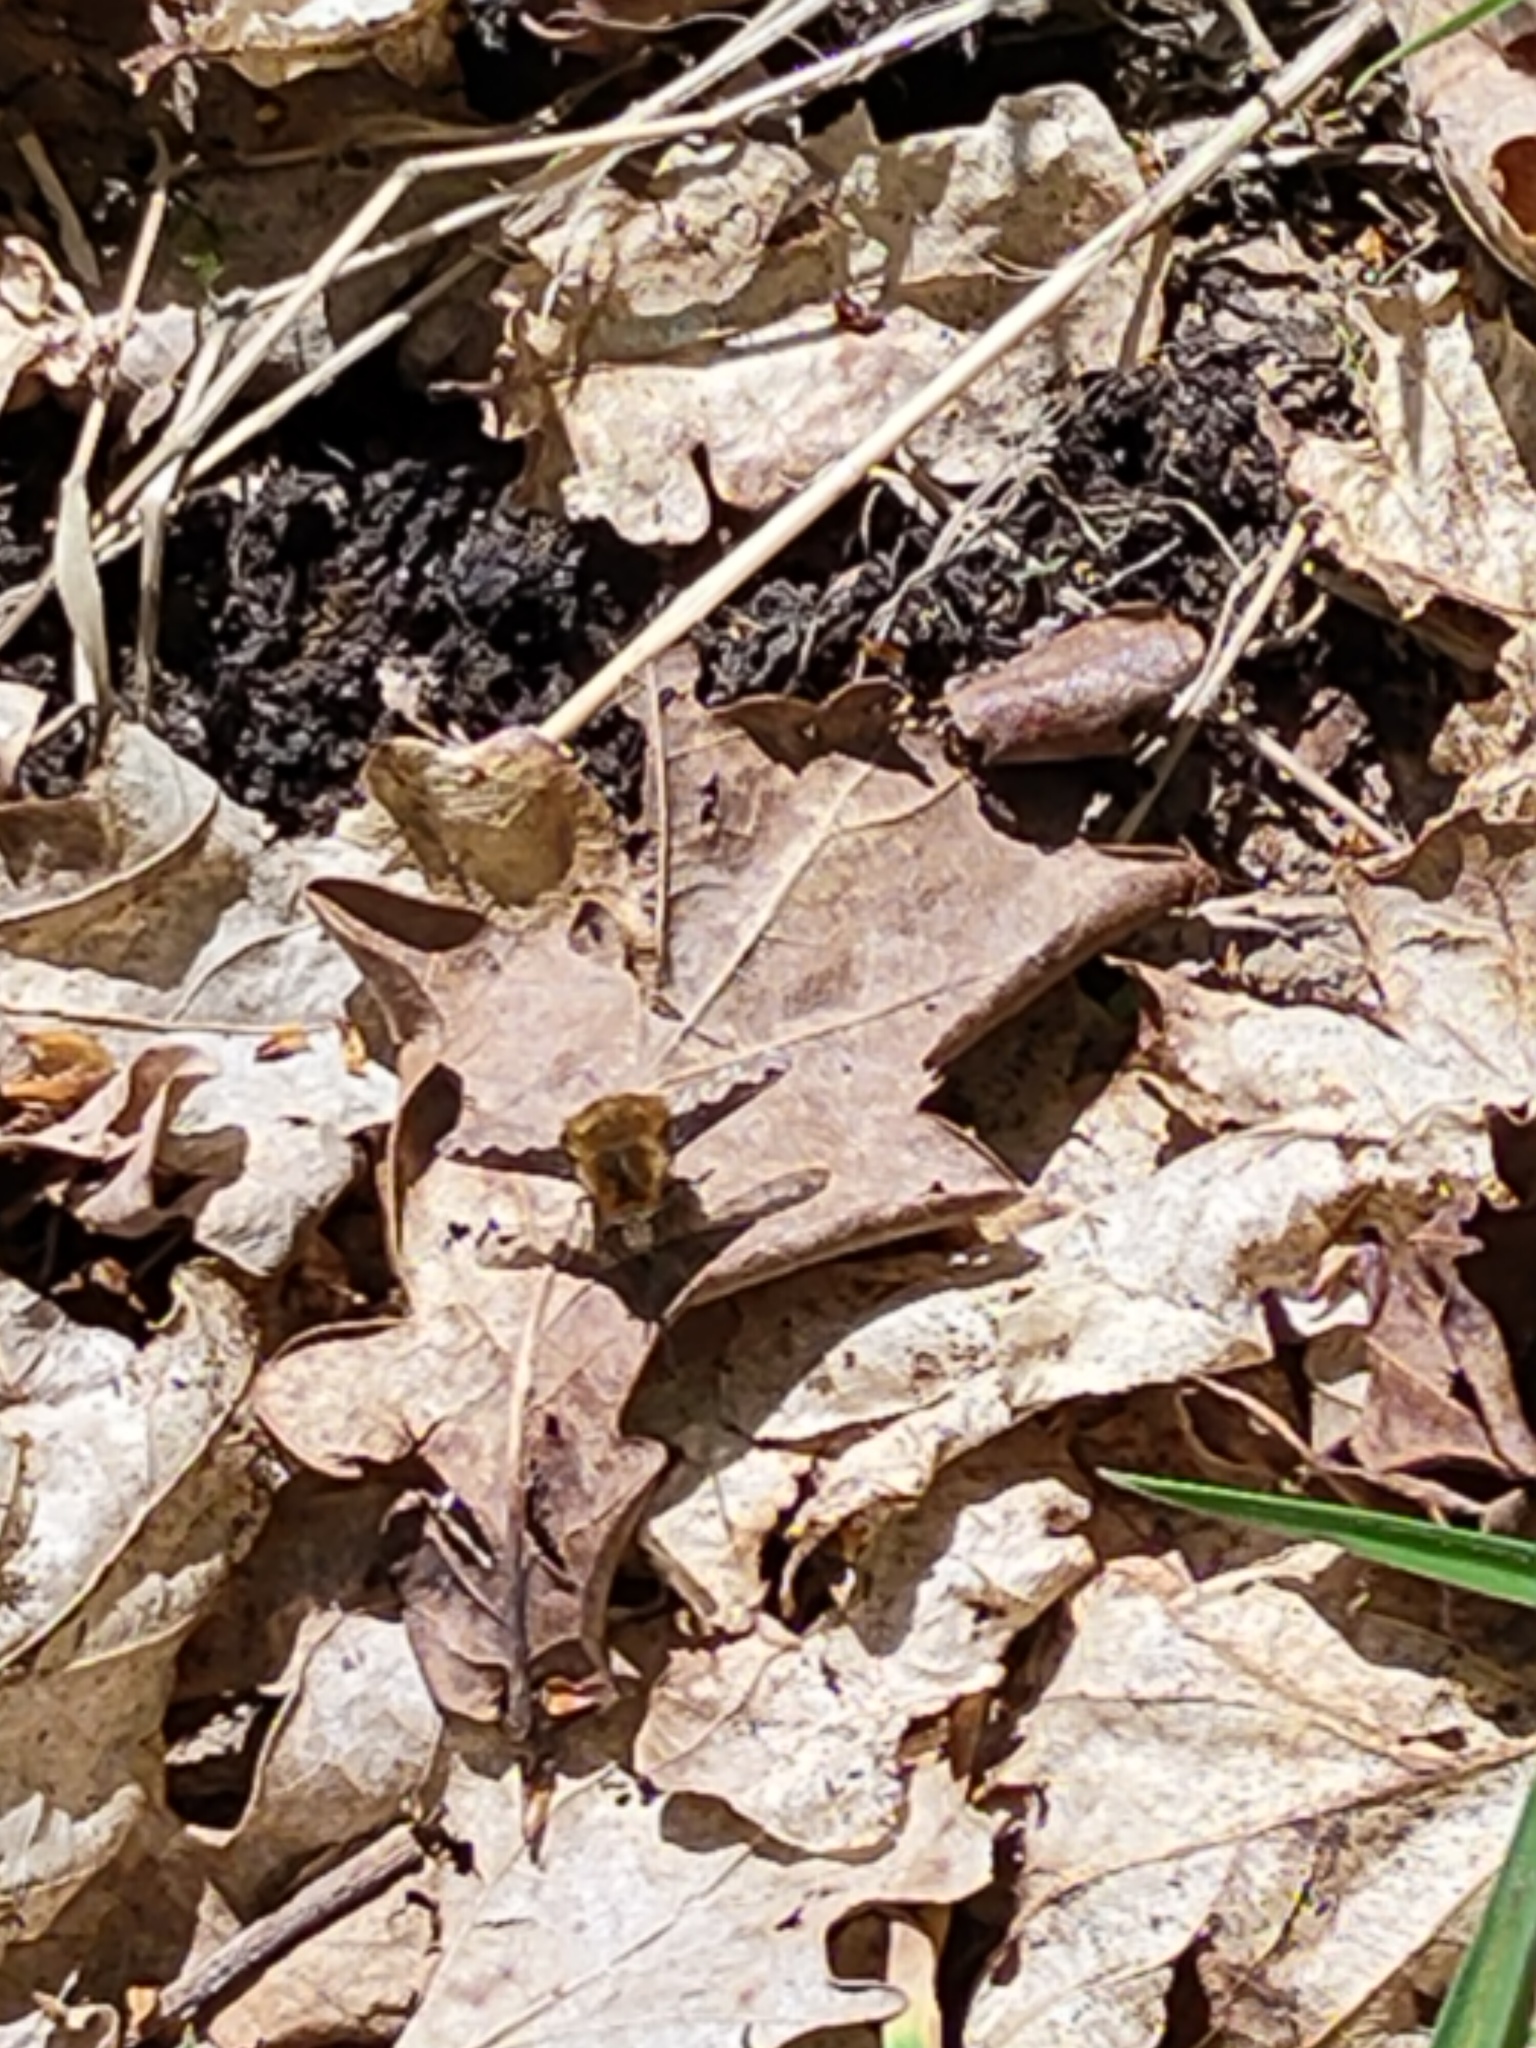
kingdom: Animalia
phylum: Arthropoda
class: Insecta
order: Diptera
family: Bombyliidae
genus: Bombylius
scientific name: Bombylius major
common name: Bee fly
